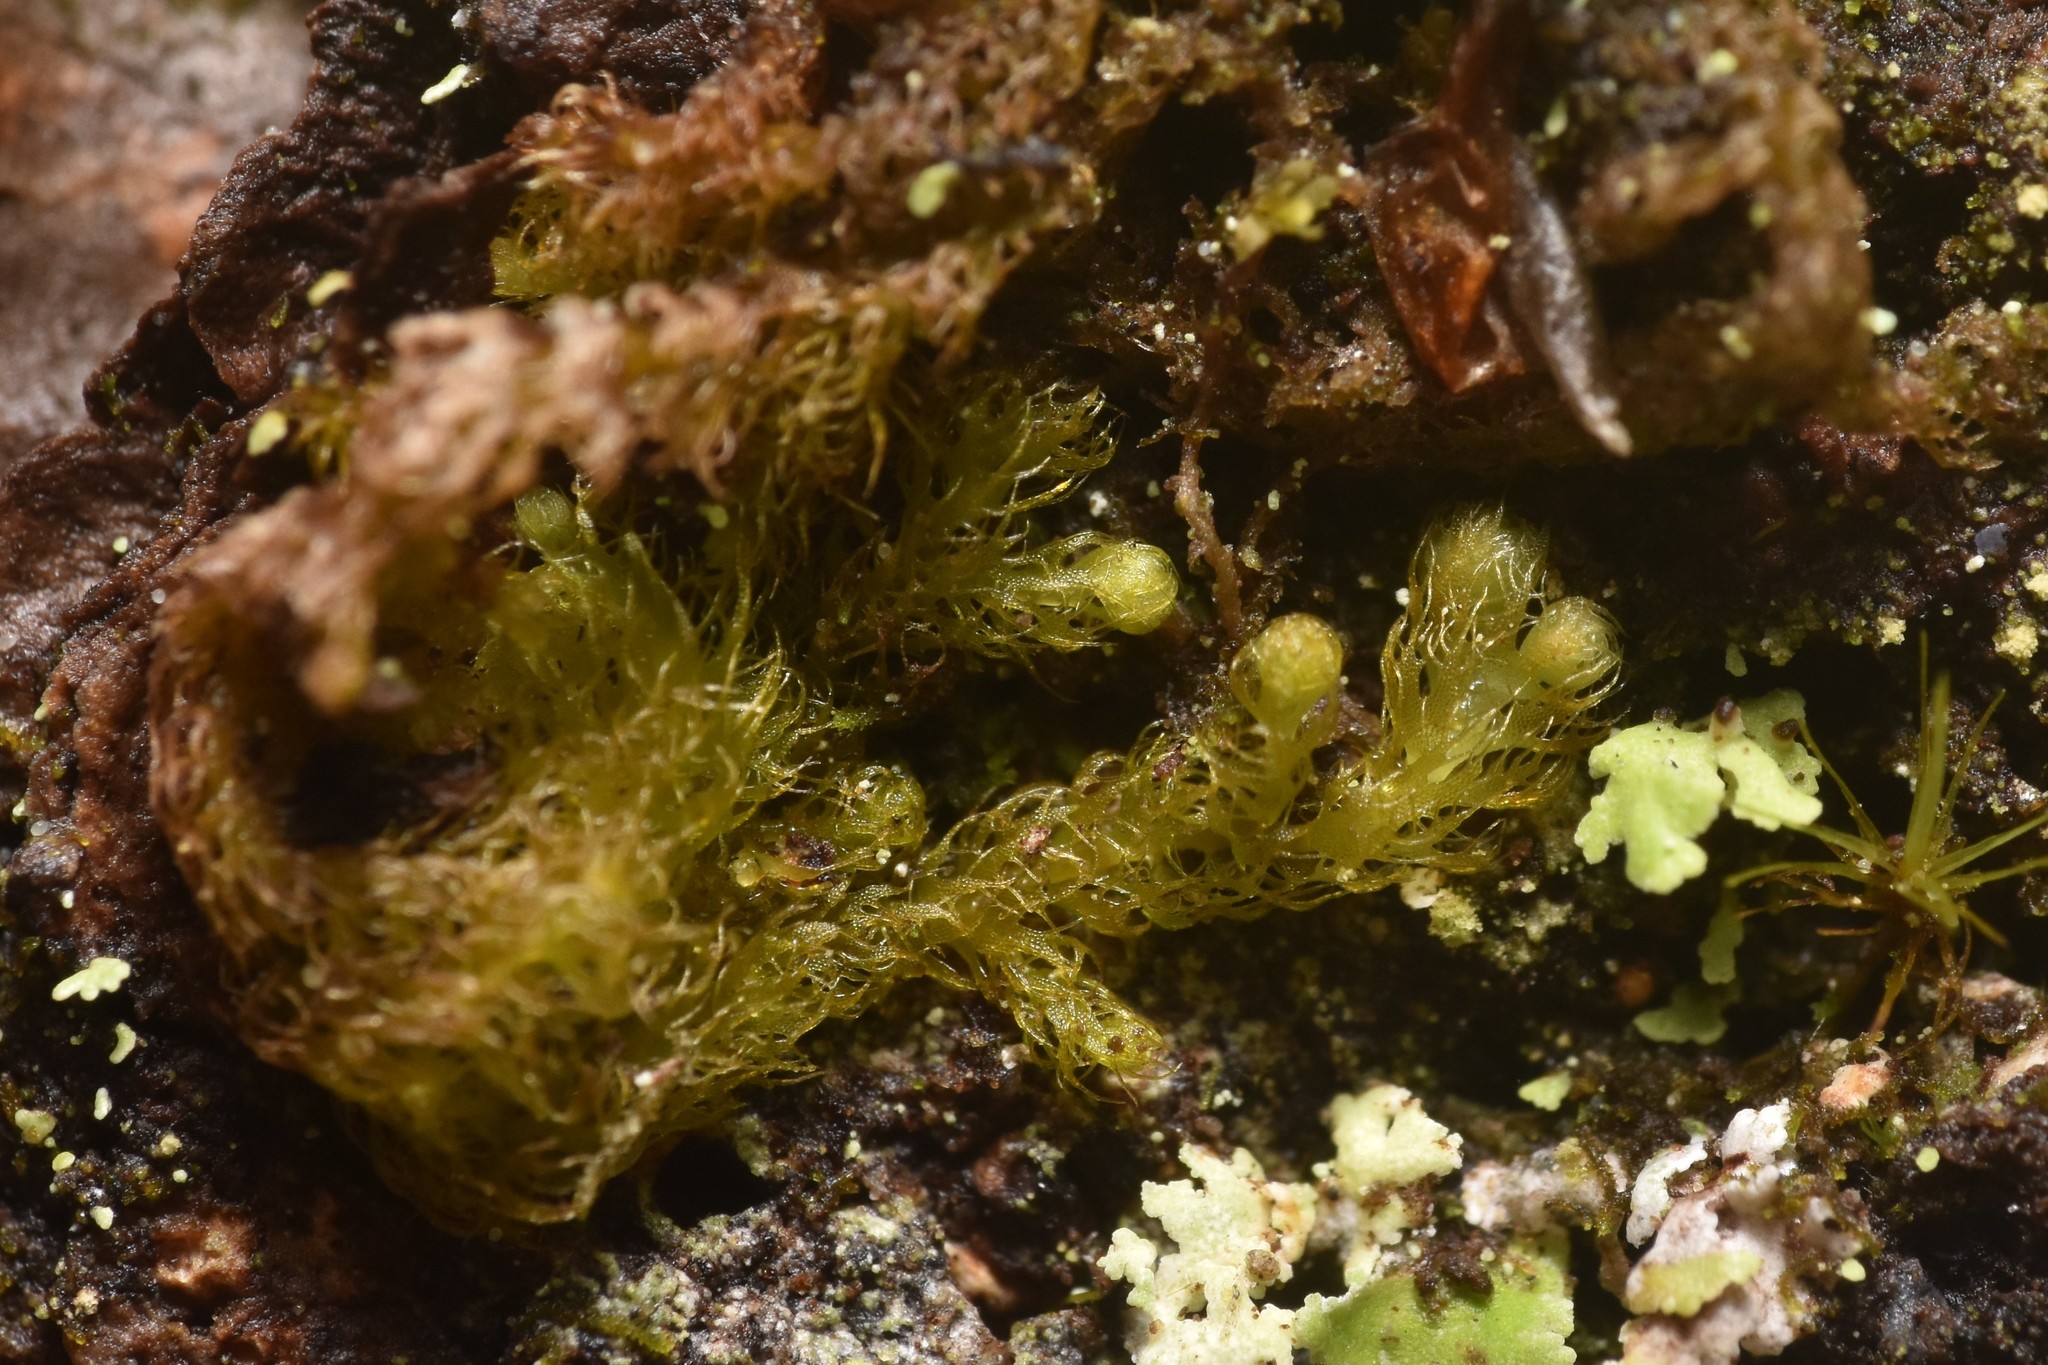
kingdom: Plantae
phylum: Marchantiophyta
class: Jungermanniopsida
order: Ptilidiales
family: Ptilidiaceae
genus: Ptilidium
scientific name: Ptilidium pulcherrimum
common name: Tree fringewort
